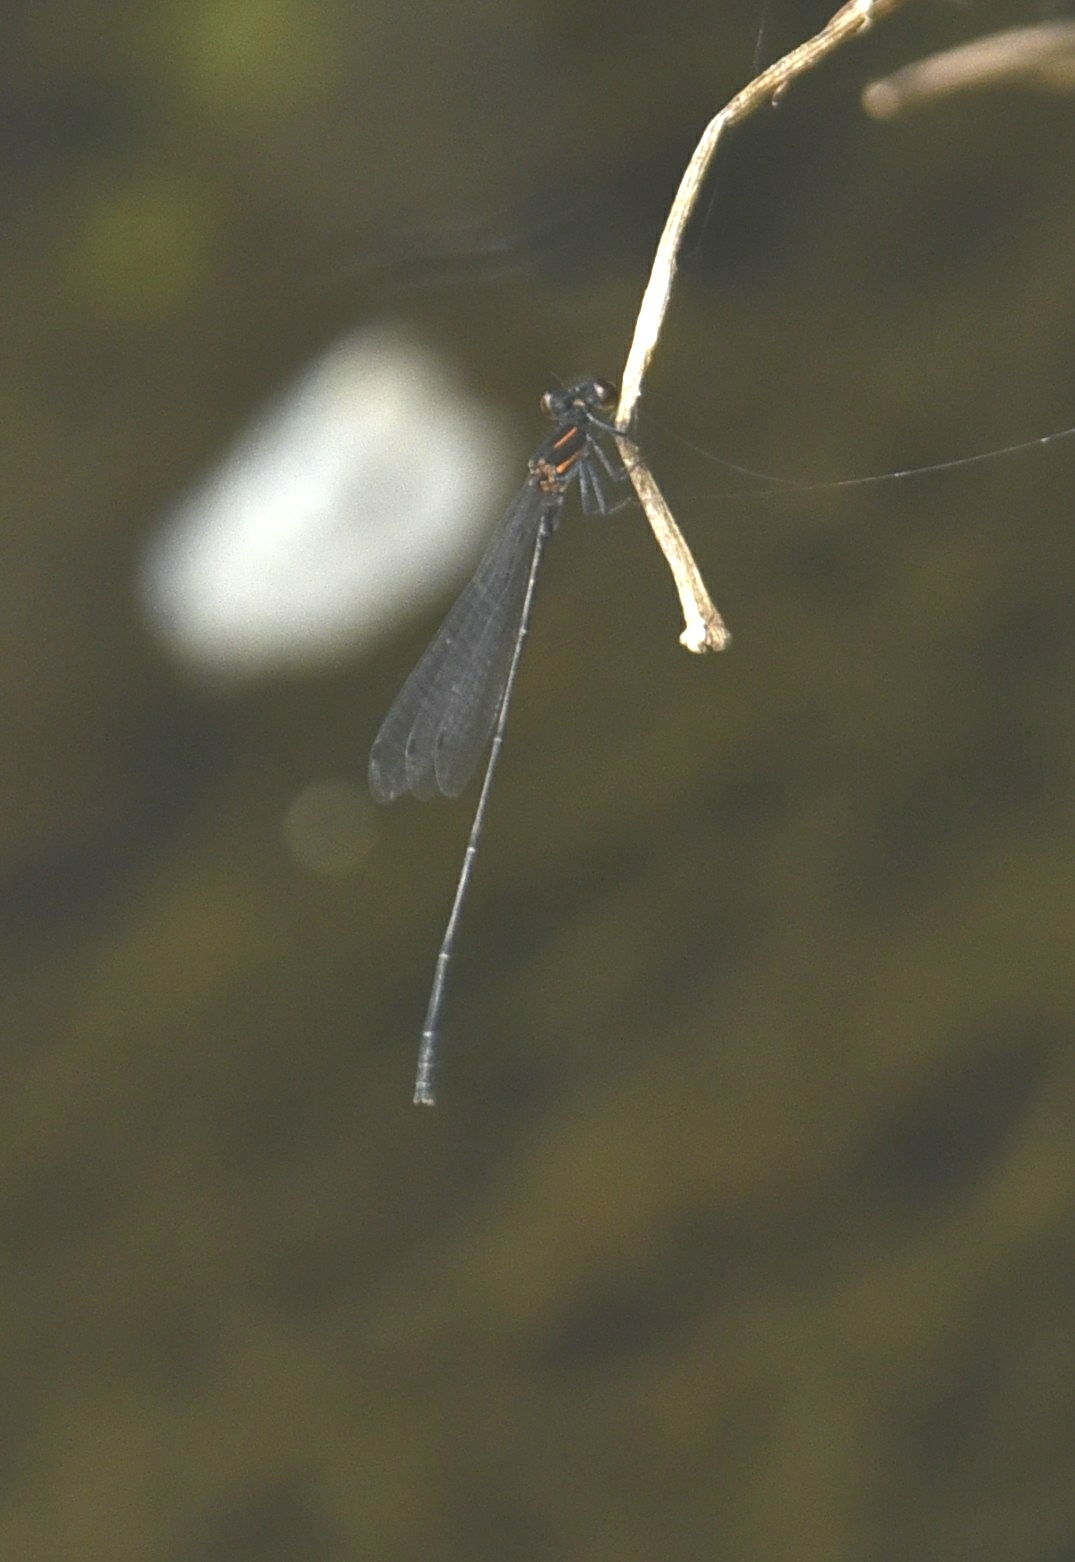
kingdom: Animalia
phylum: Arthropoda
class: Insecta
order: Odonata
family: Platycnemididae
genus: Prodasineura
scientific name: Prodasineura verticalis
